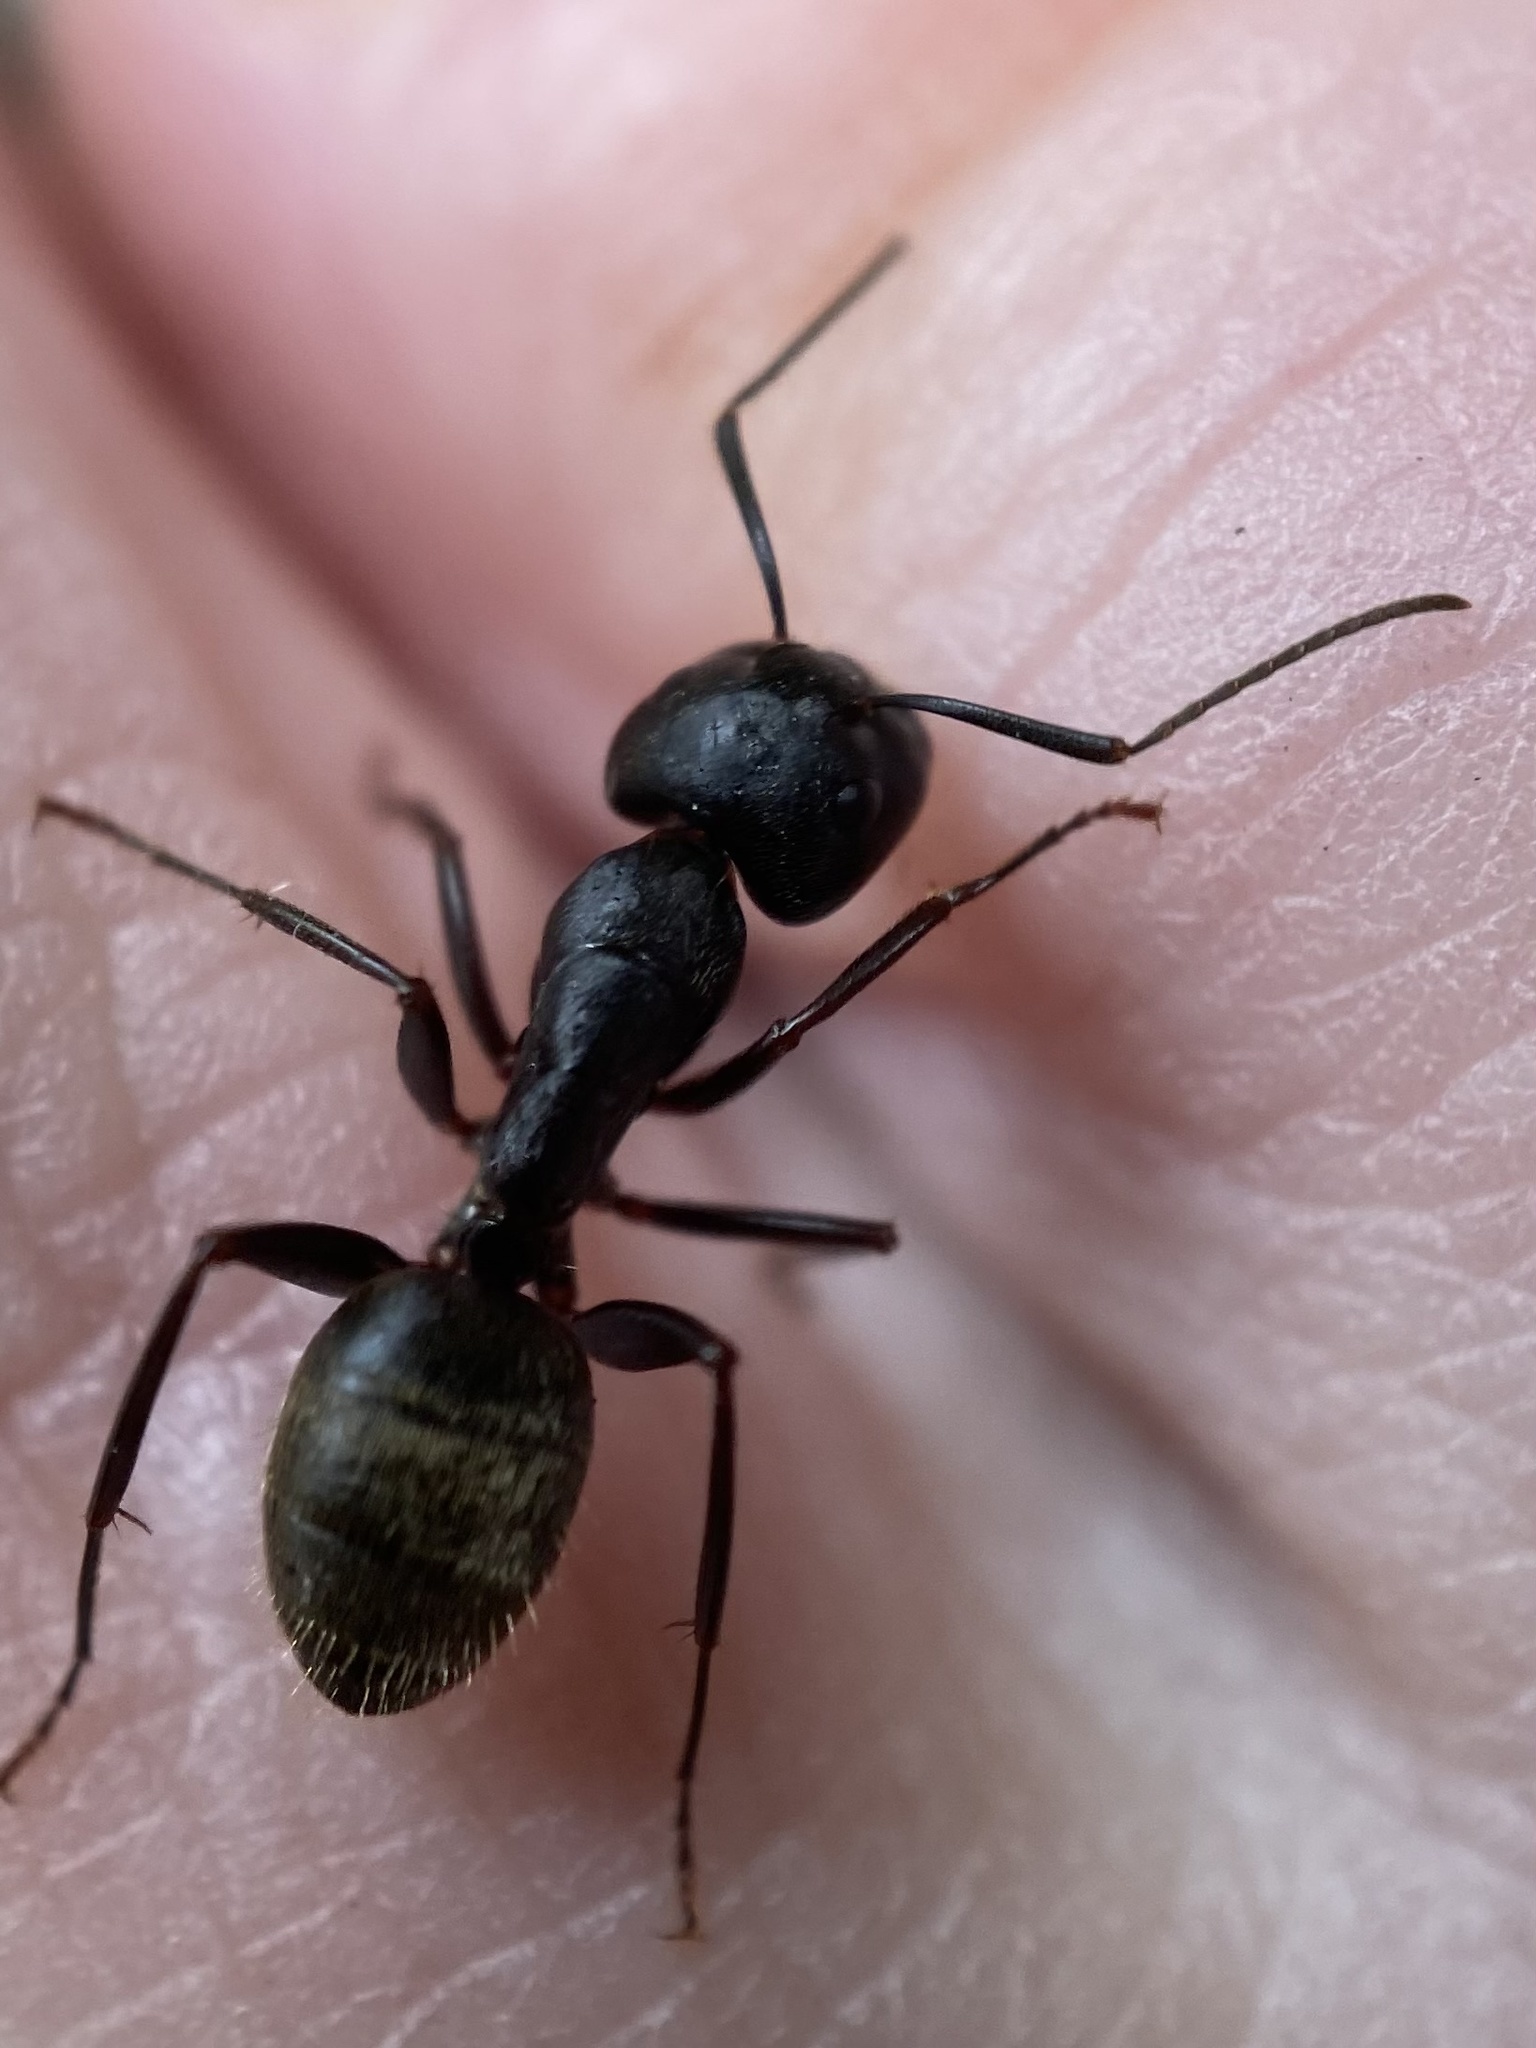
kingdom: Animalia
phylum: Arthropoda
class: Insecta
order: Hymenoptera
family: Formicidae
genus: Camponotus
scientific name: Camponotus pennsylvanicus
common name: Black carpenter ant
